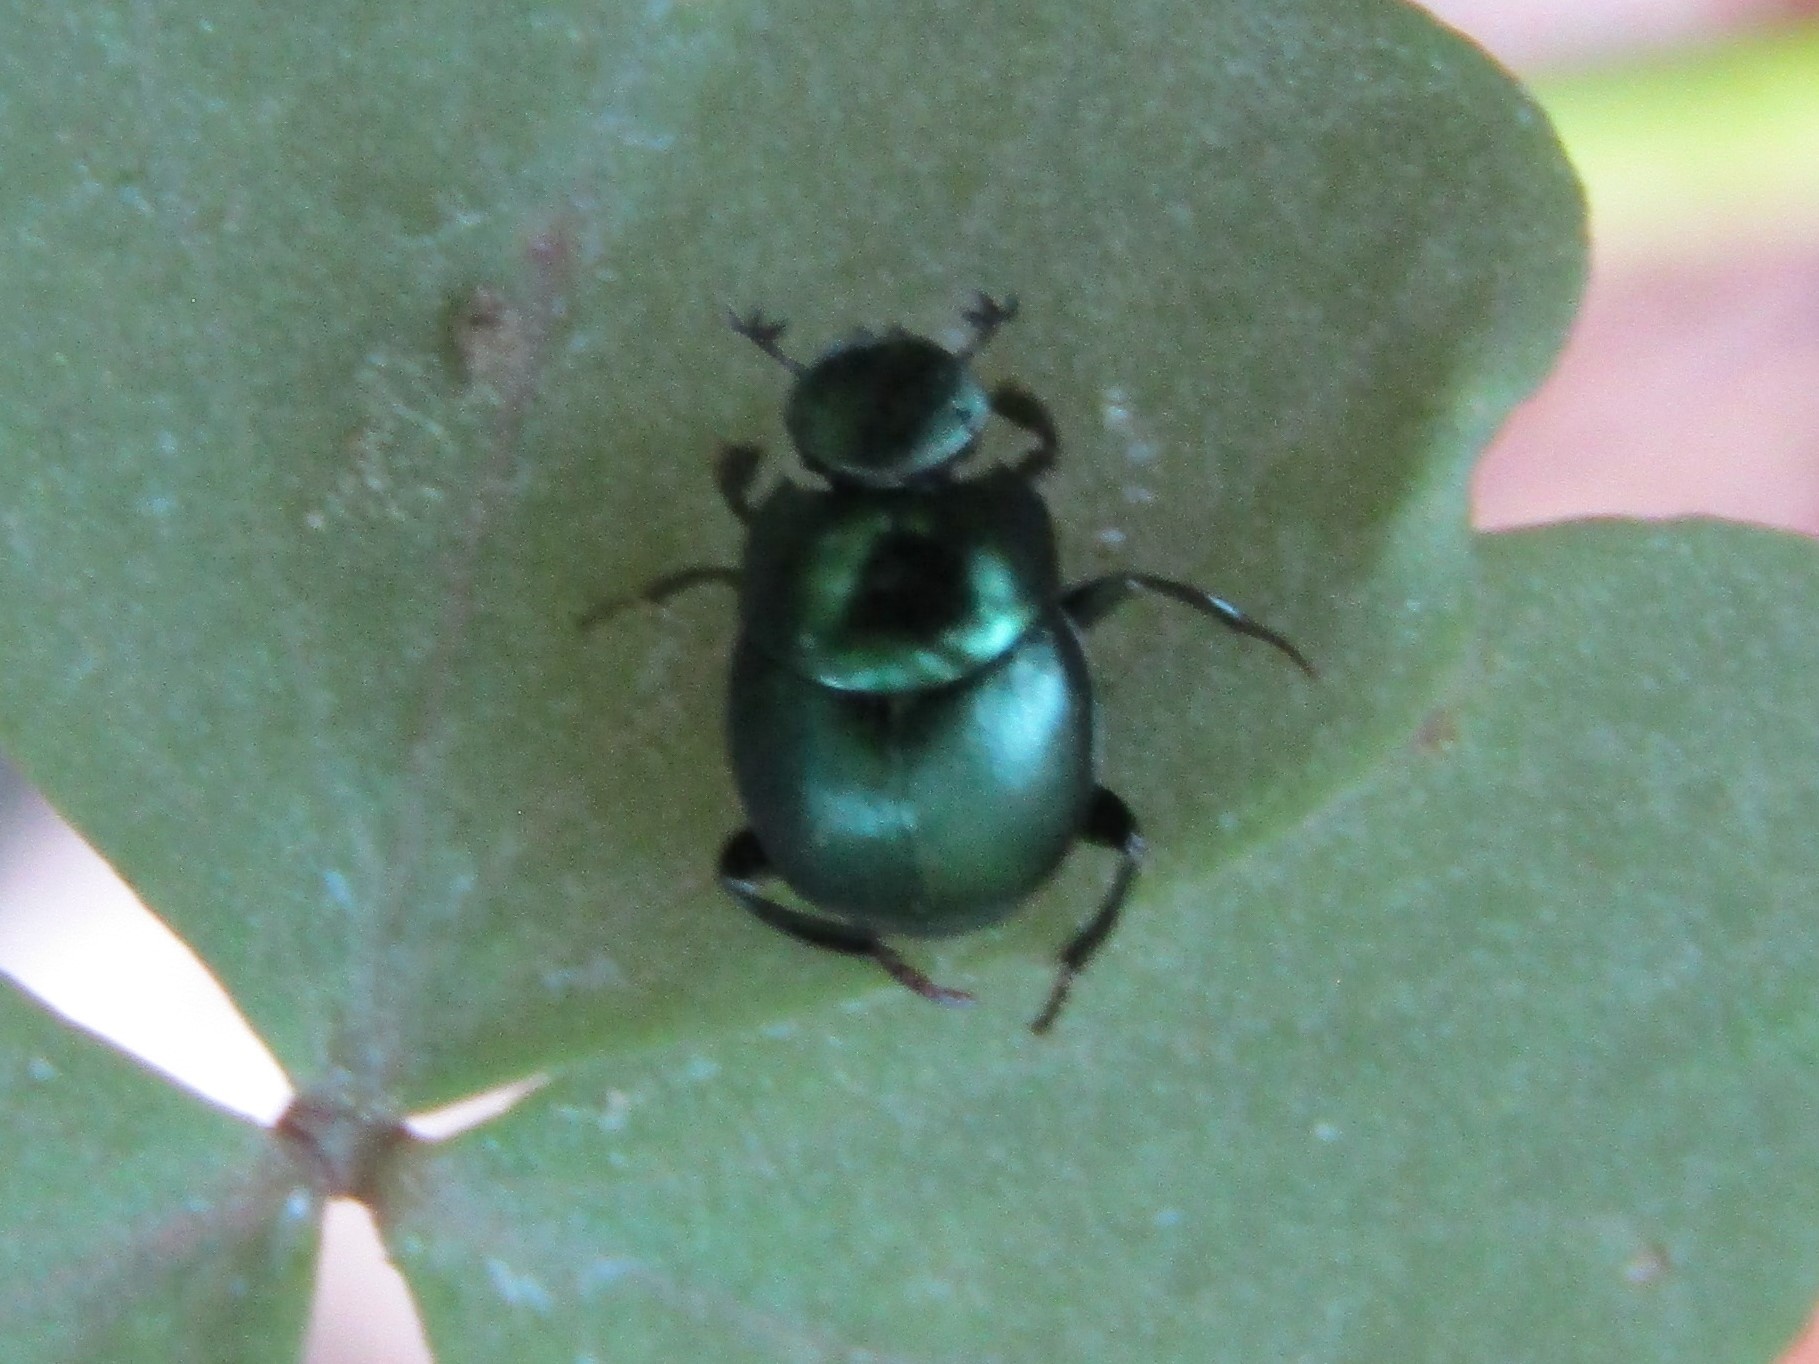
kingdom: Animalia
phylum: Arthropoda
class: Insecta
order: Coleoptera
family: Scarabaeidae
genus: Canthon
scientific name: Canthon viridis
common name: Tumblebug
